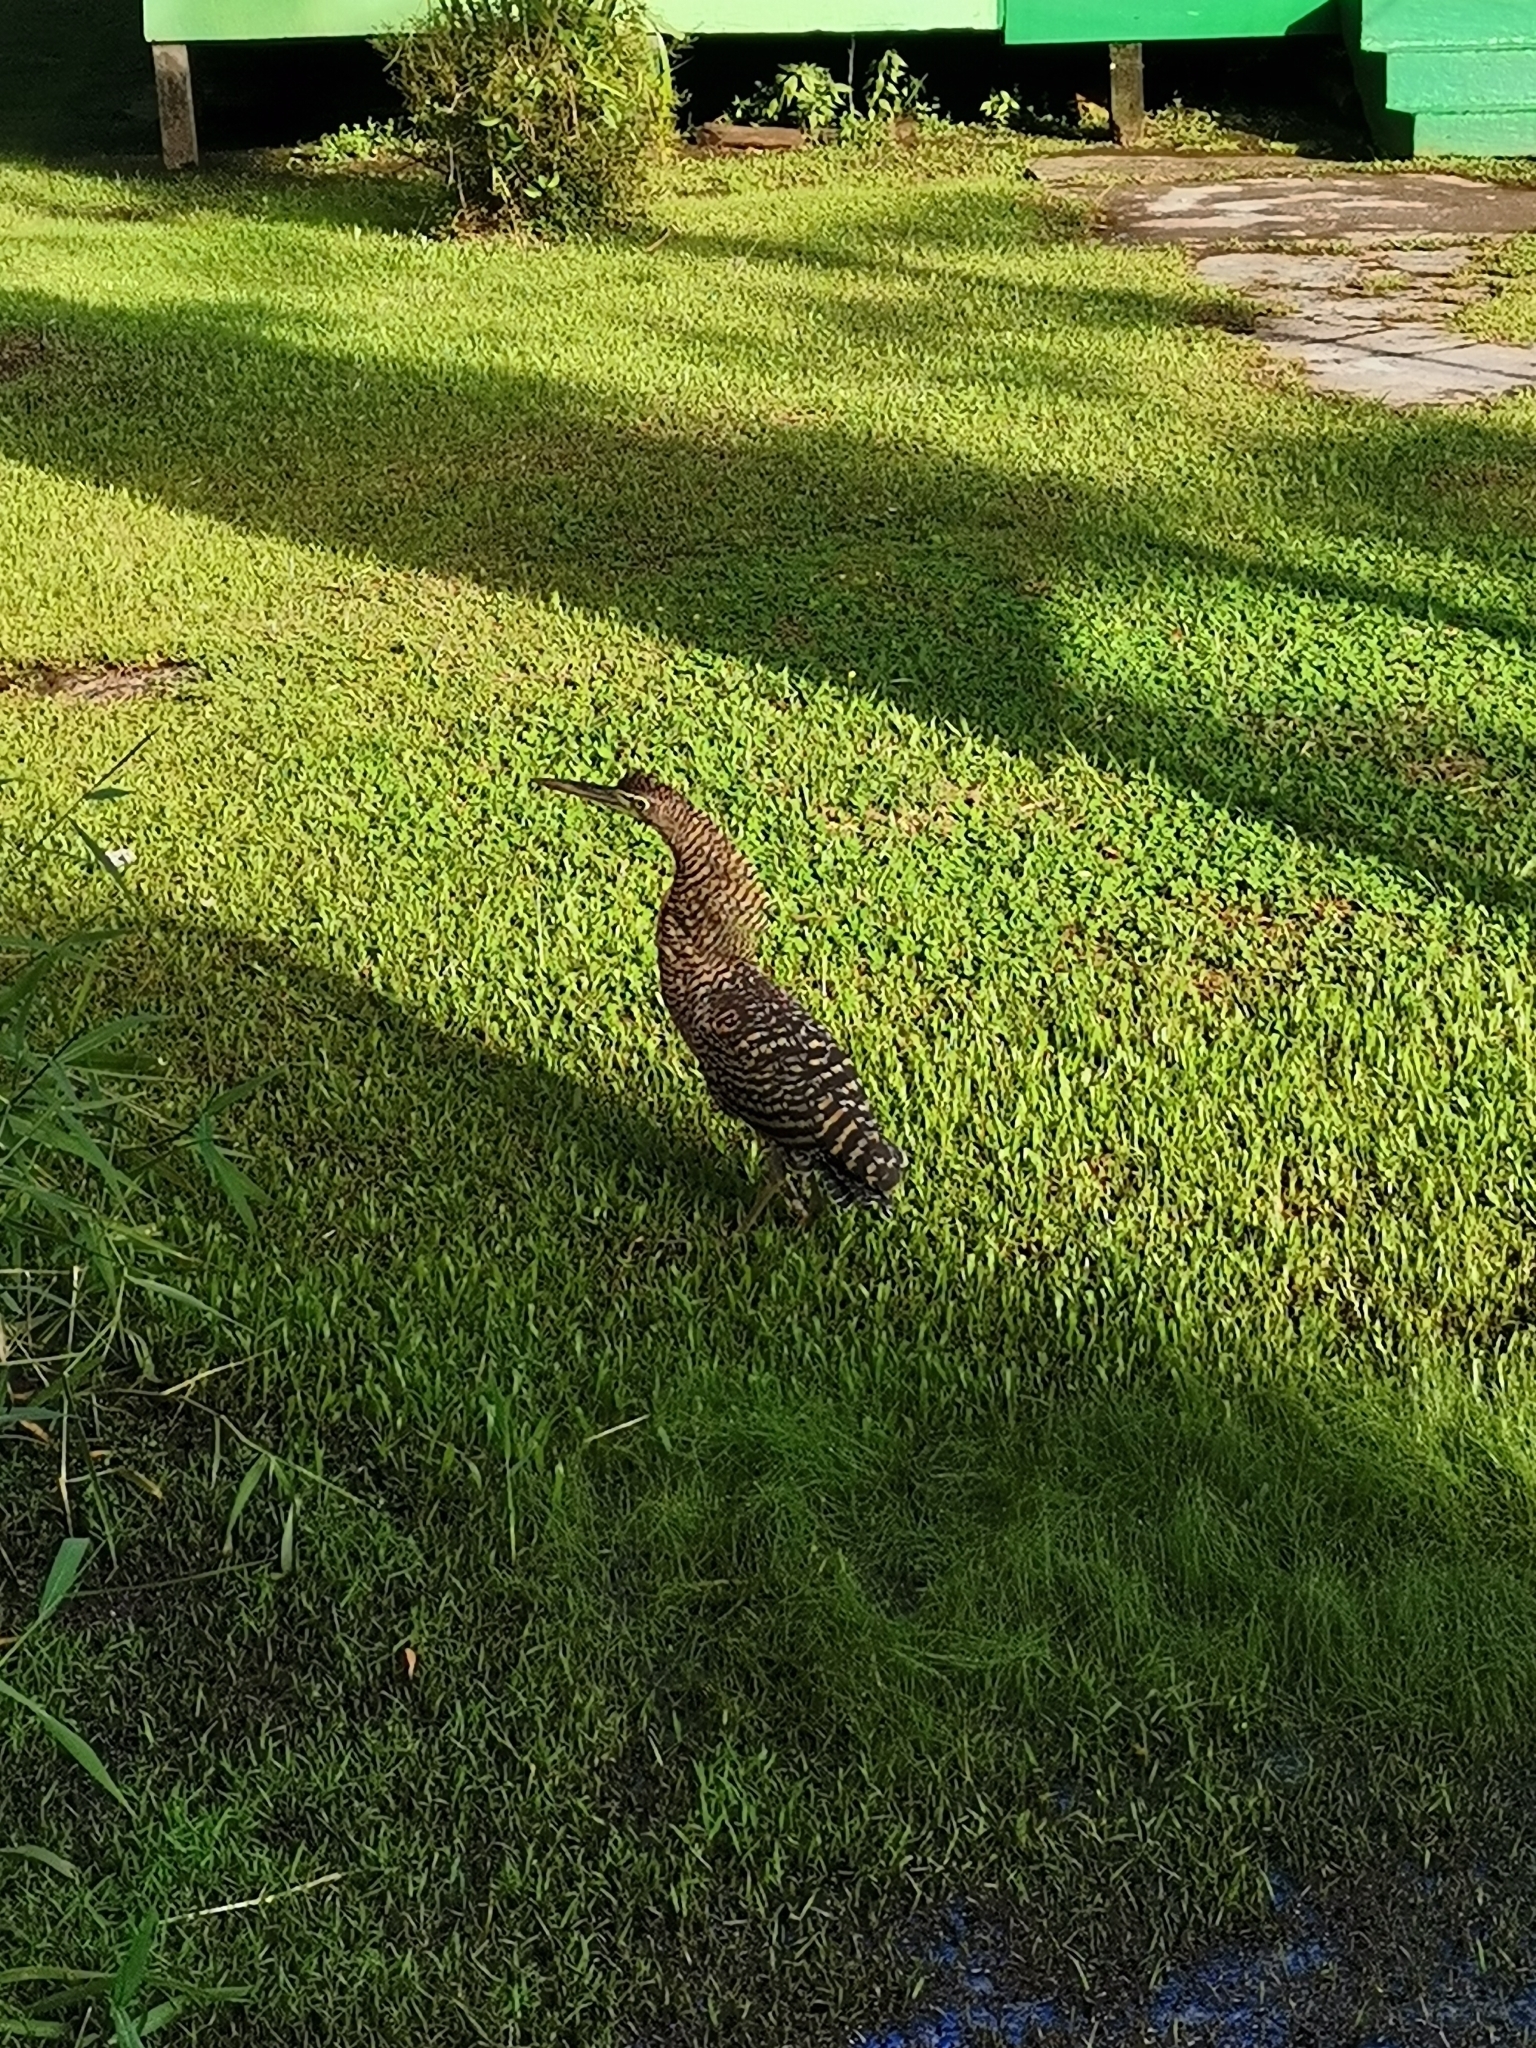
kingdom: Animalia
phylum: Chordata
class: Aves
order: Pelecaniformes
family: Ardeidae
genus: Tigrisoma
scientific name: Tigrisoma mexicanum
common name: Bare-throated tiger-heron
